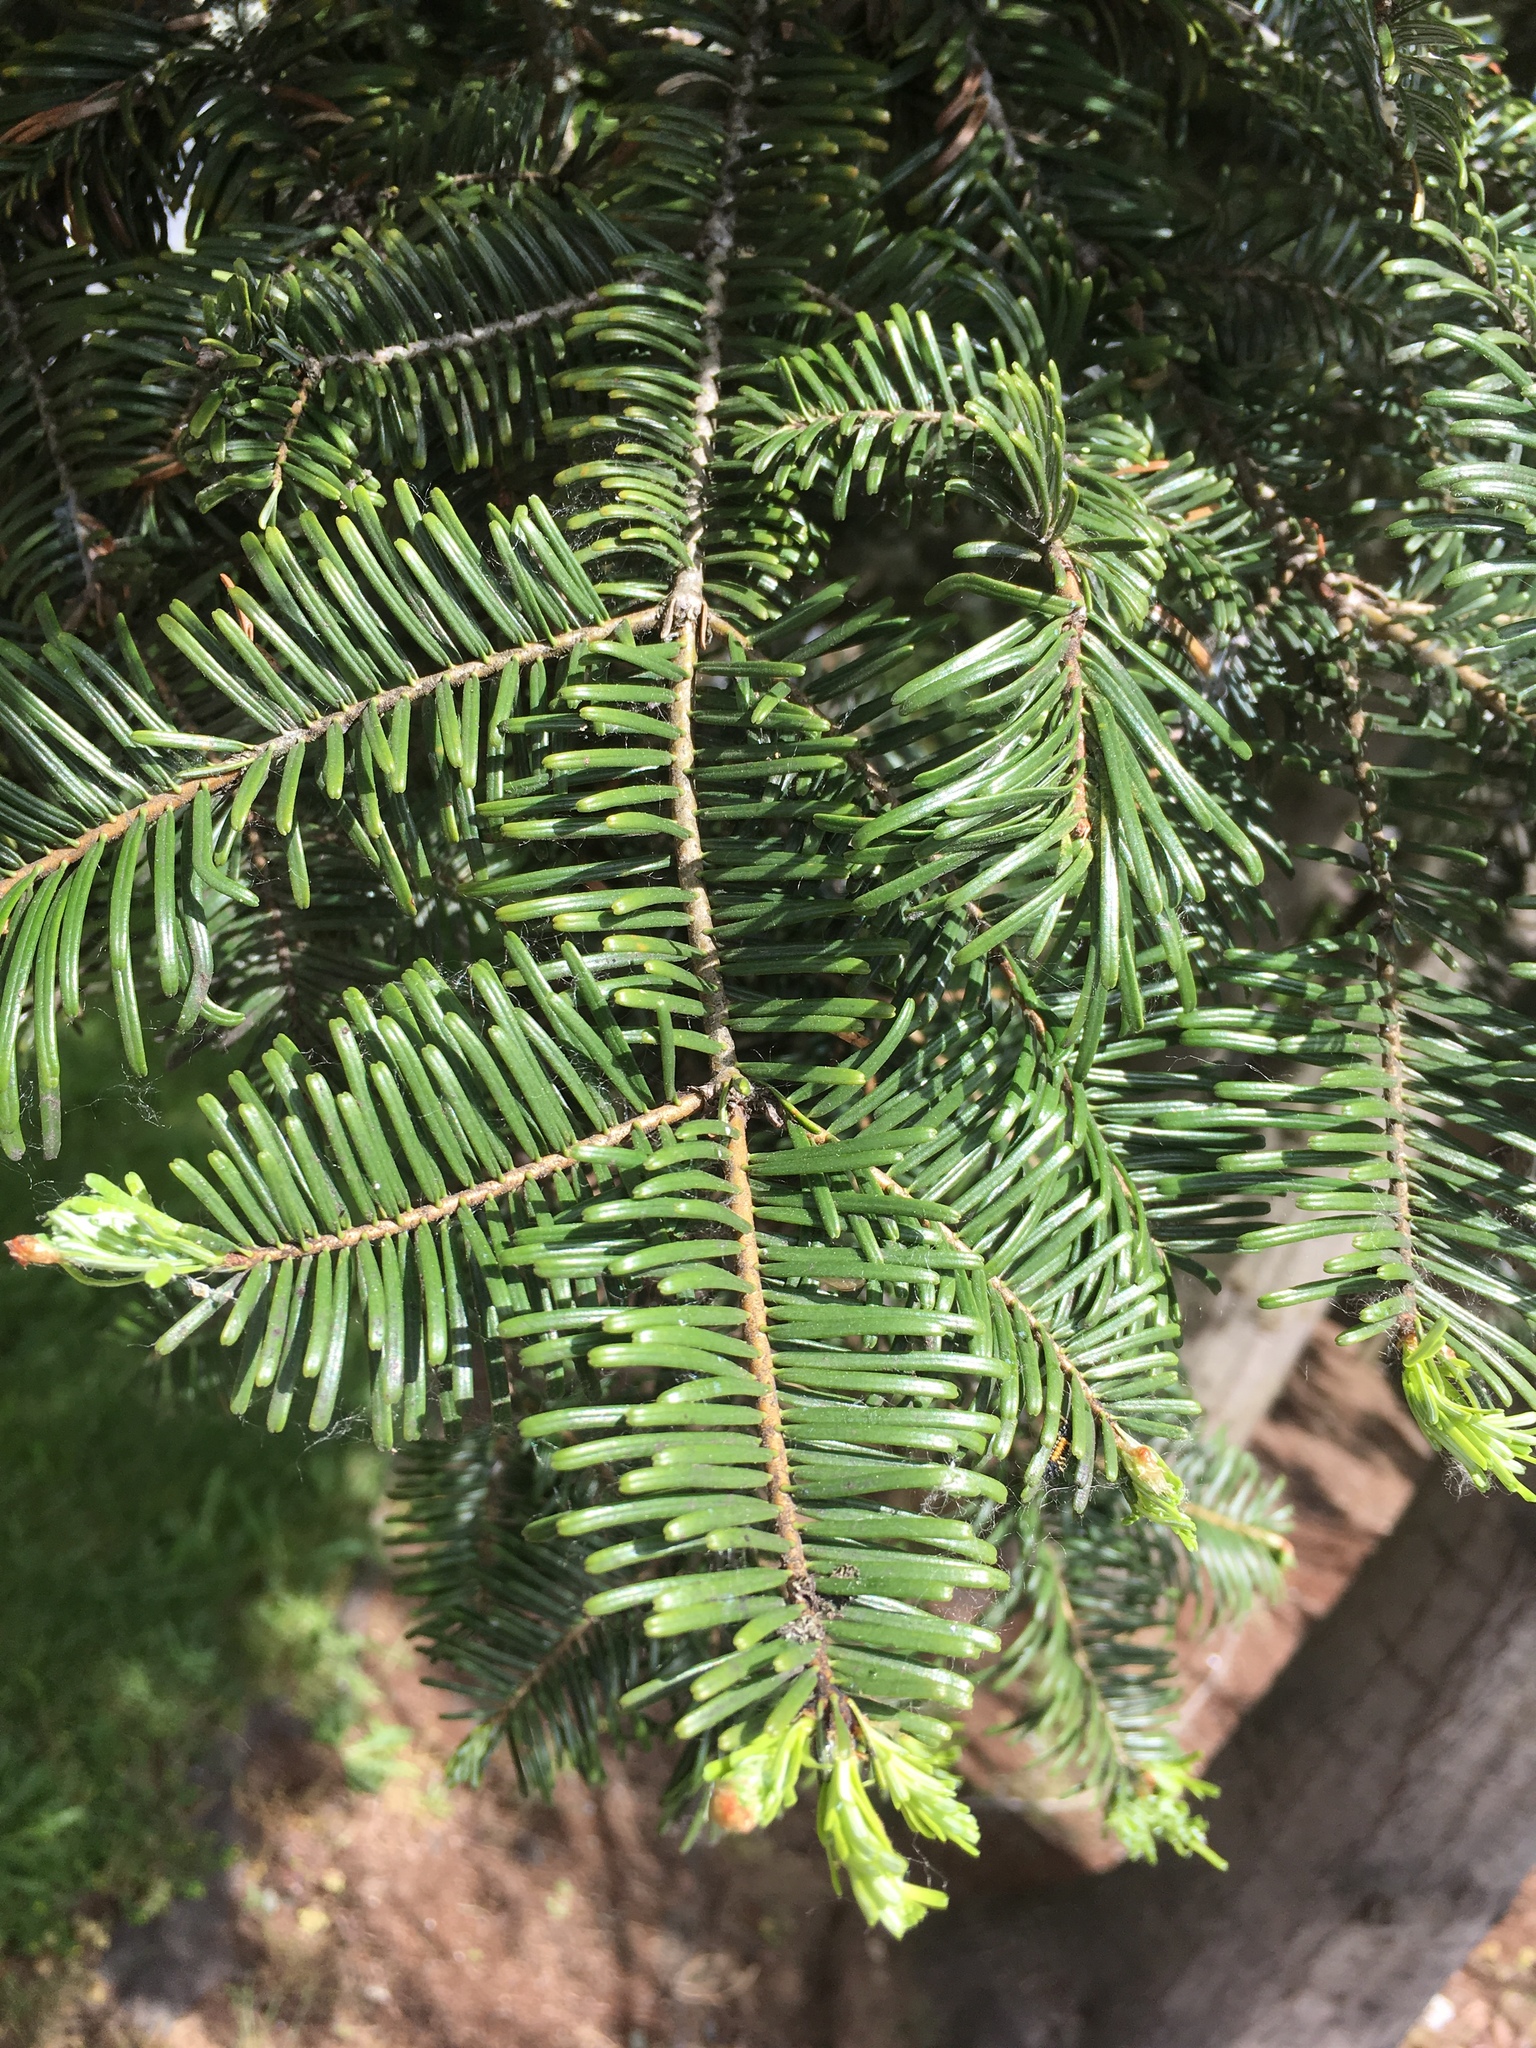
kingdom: Plantae
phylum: Tracheophyta
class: Pinopsida
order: Pinales
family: Pinaceae
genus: Abies
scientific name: Abies grandis
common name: Giant fir
